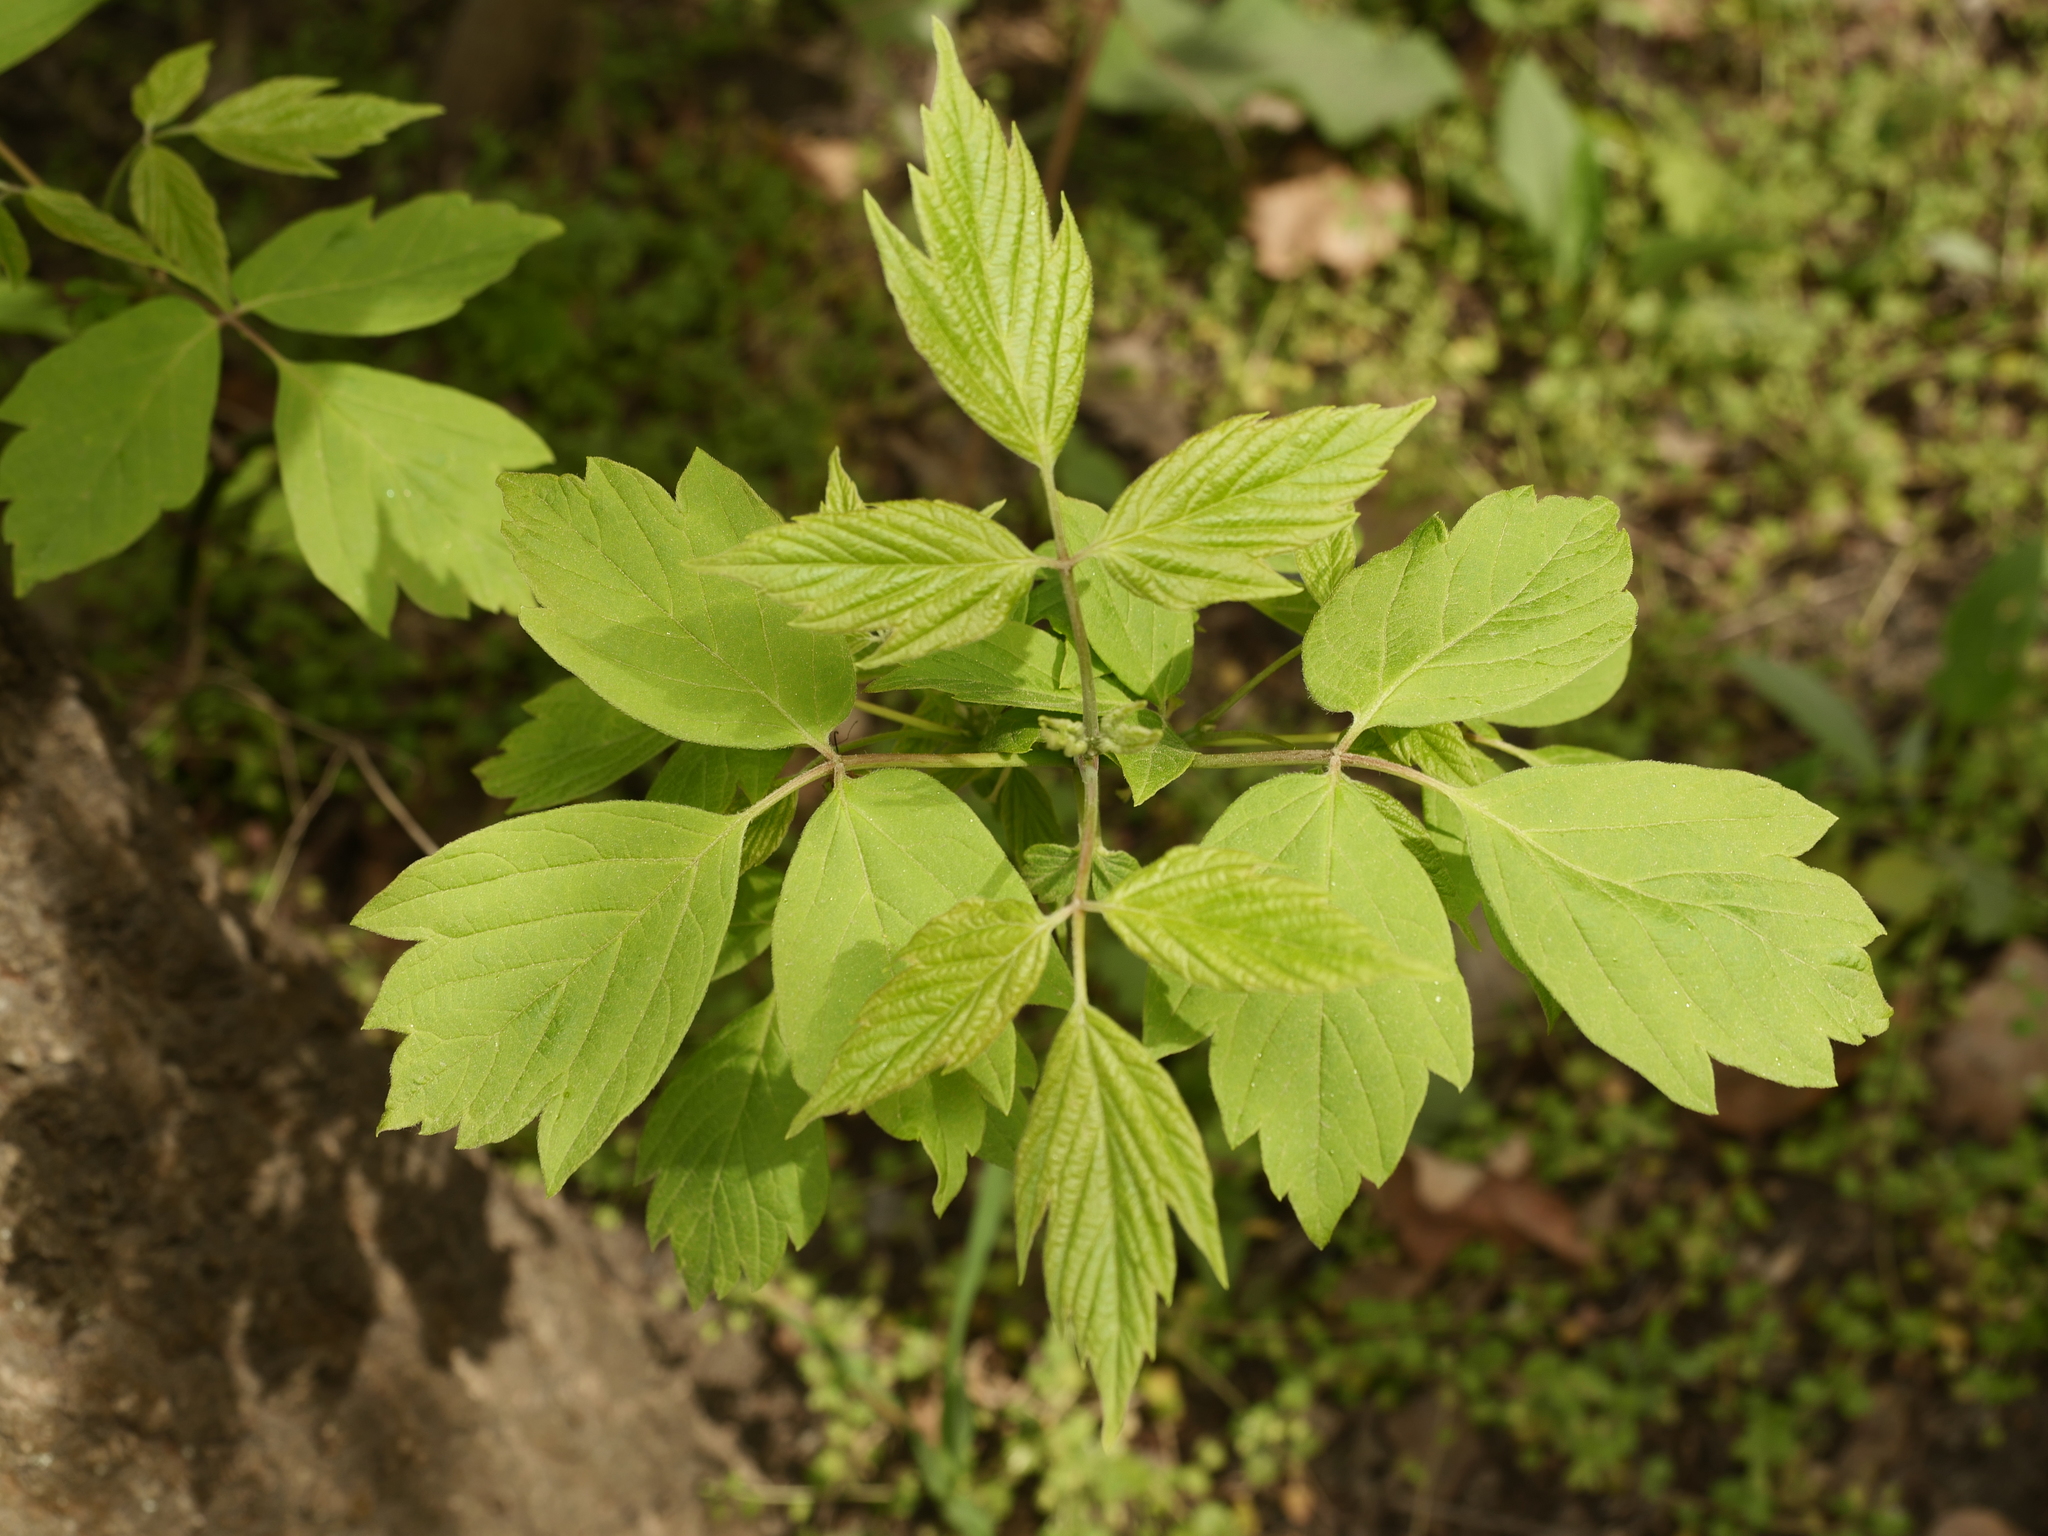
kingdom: Plantae
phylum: Tracheophyta
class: Magnoliopsida
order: Sapindales
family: Sapindaceae
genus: Acer
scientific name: Acer negundo
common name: Ashleaf maple
